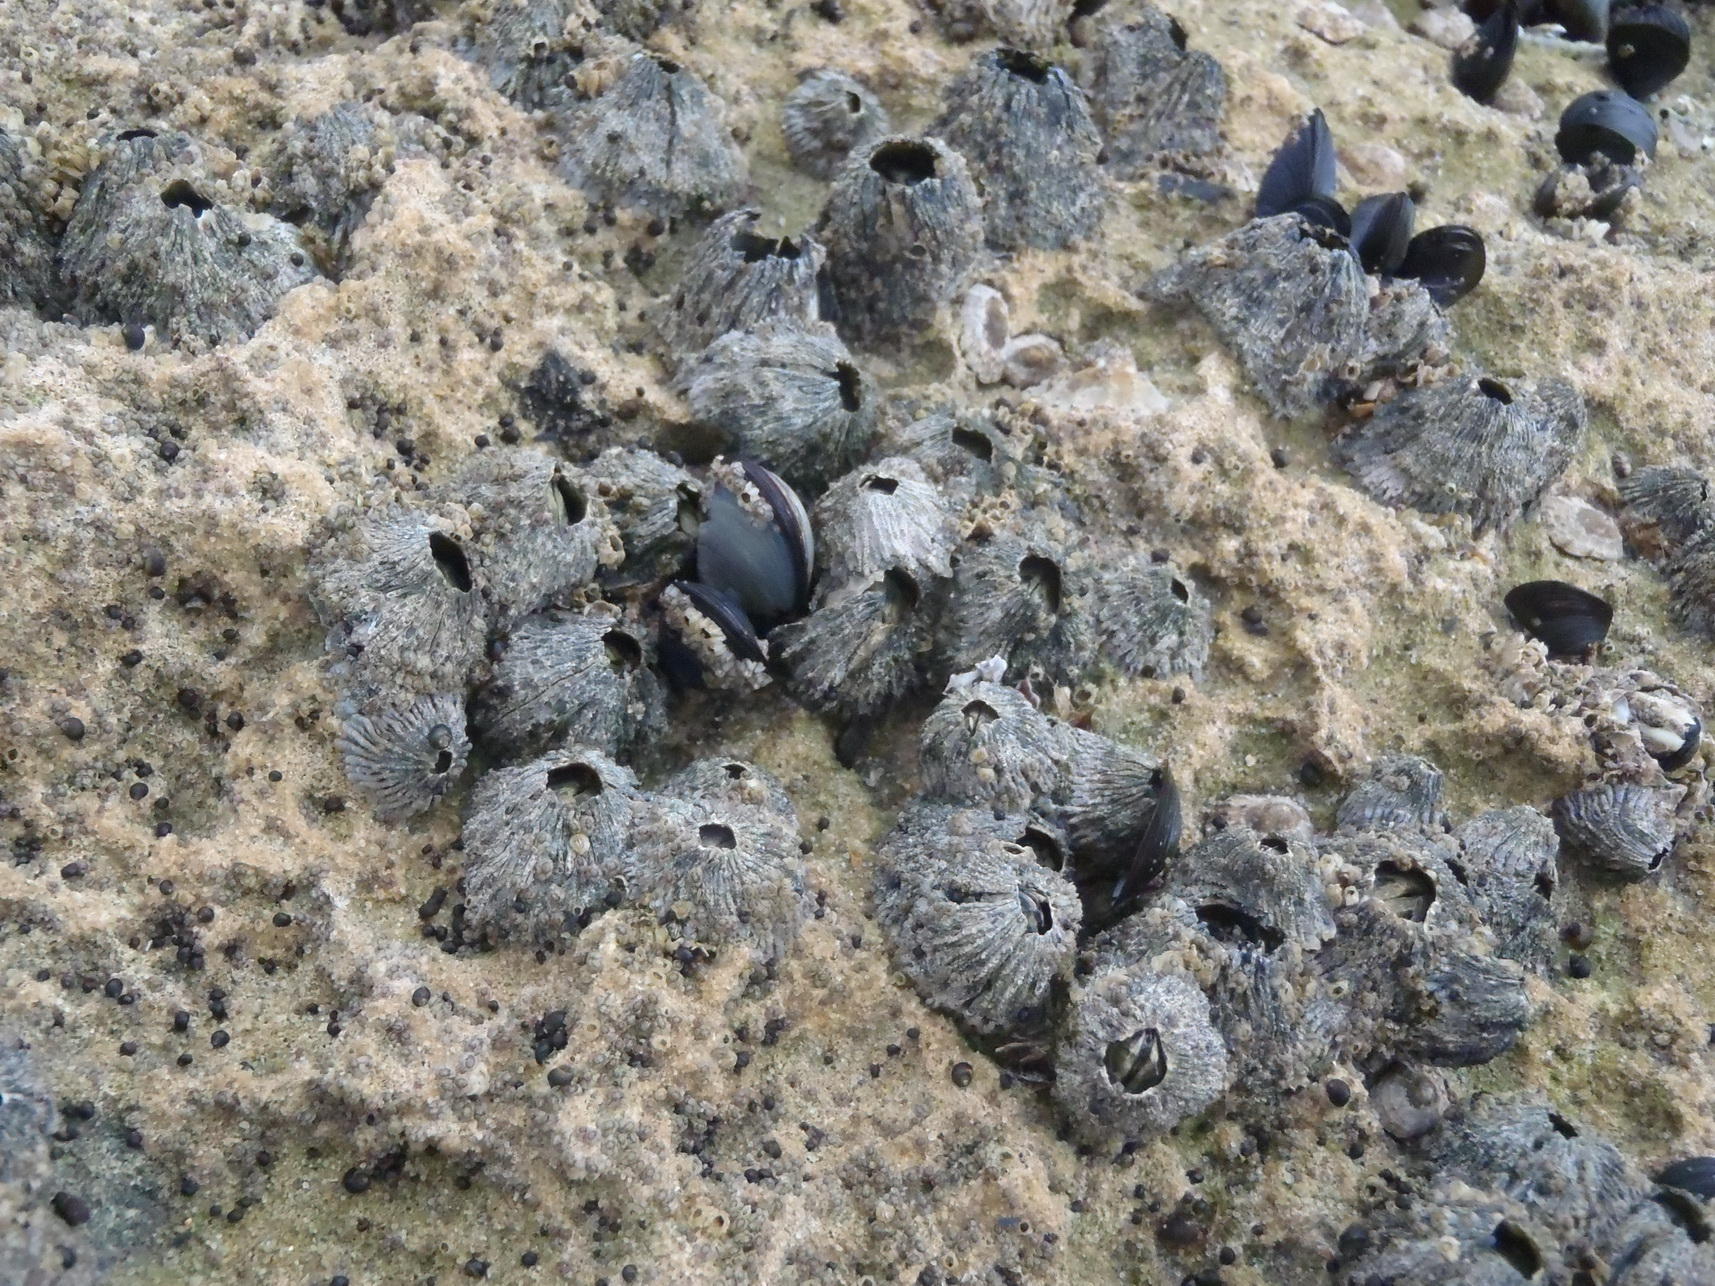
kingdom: Animalia
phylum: Arthropoda
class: Maxillopoda
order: Sessilia
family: Tetraclitidae
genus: Tetraclita
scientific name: Tetraclita serrata
